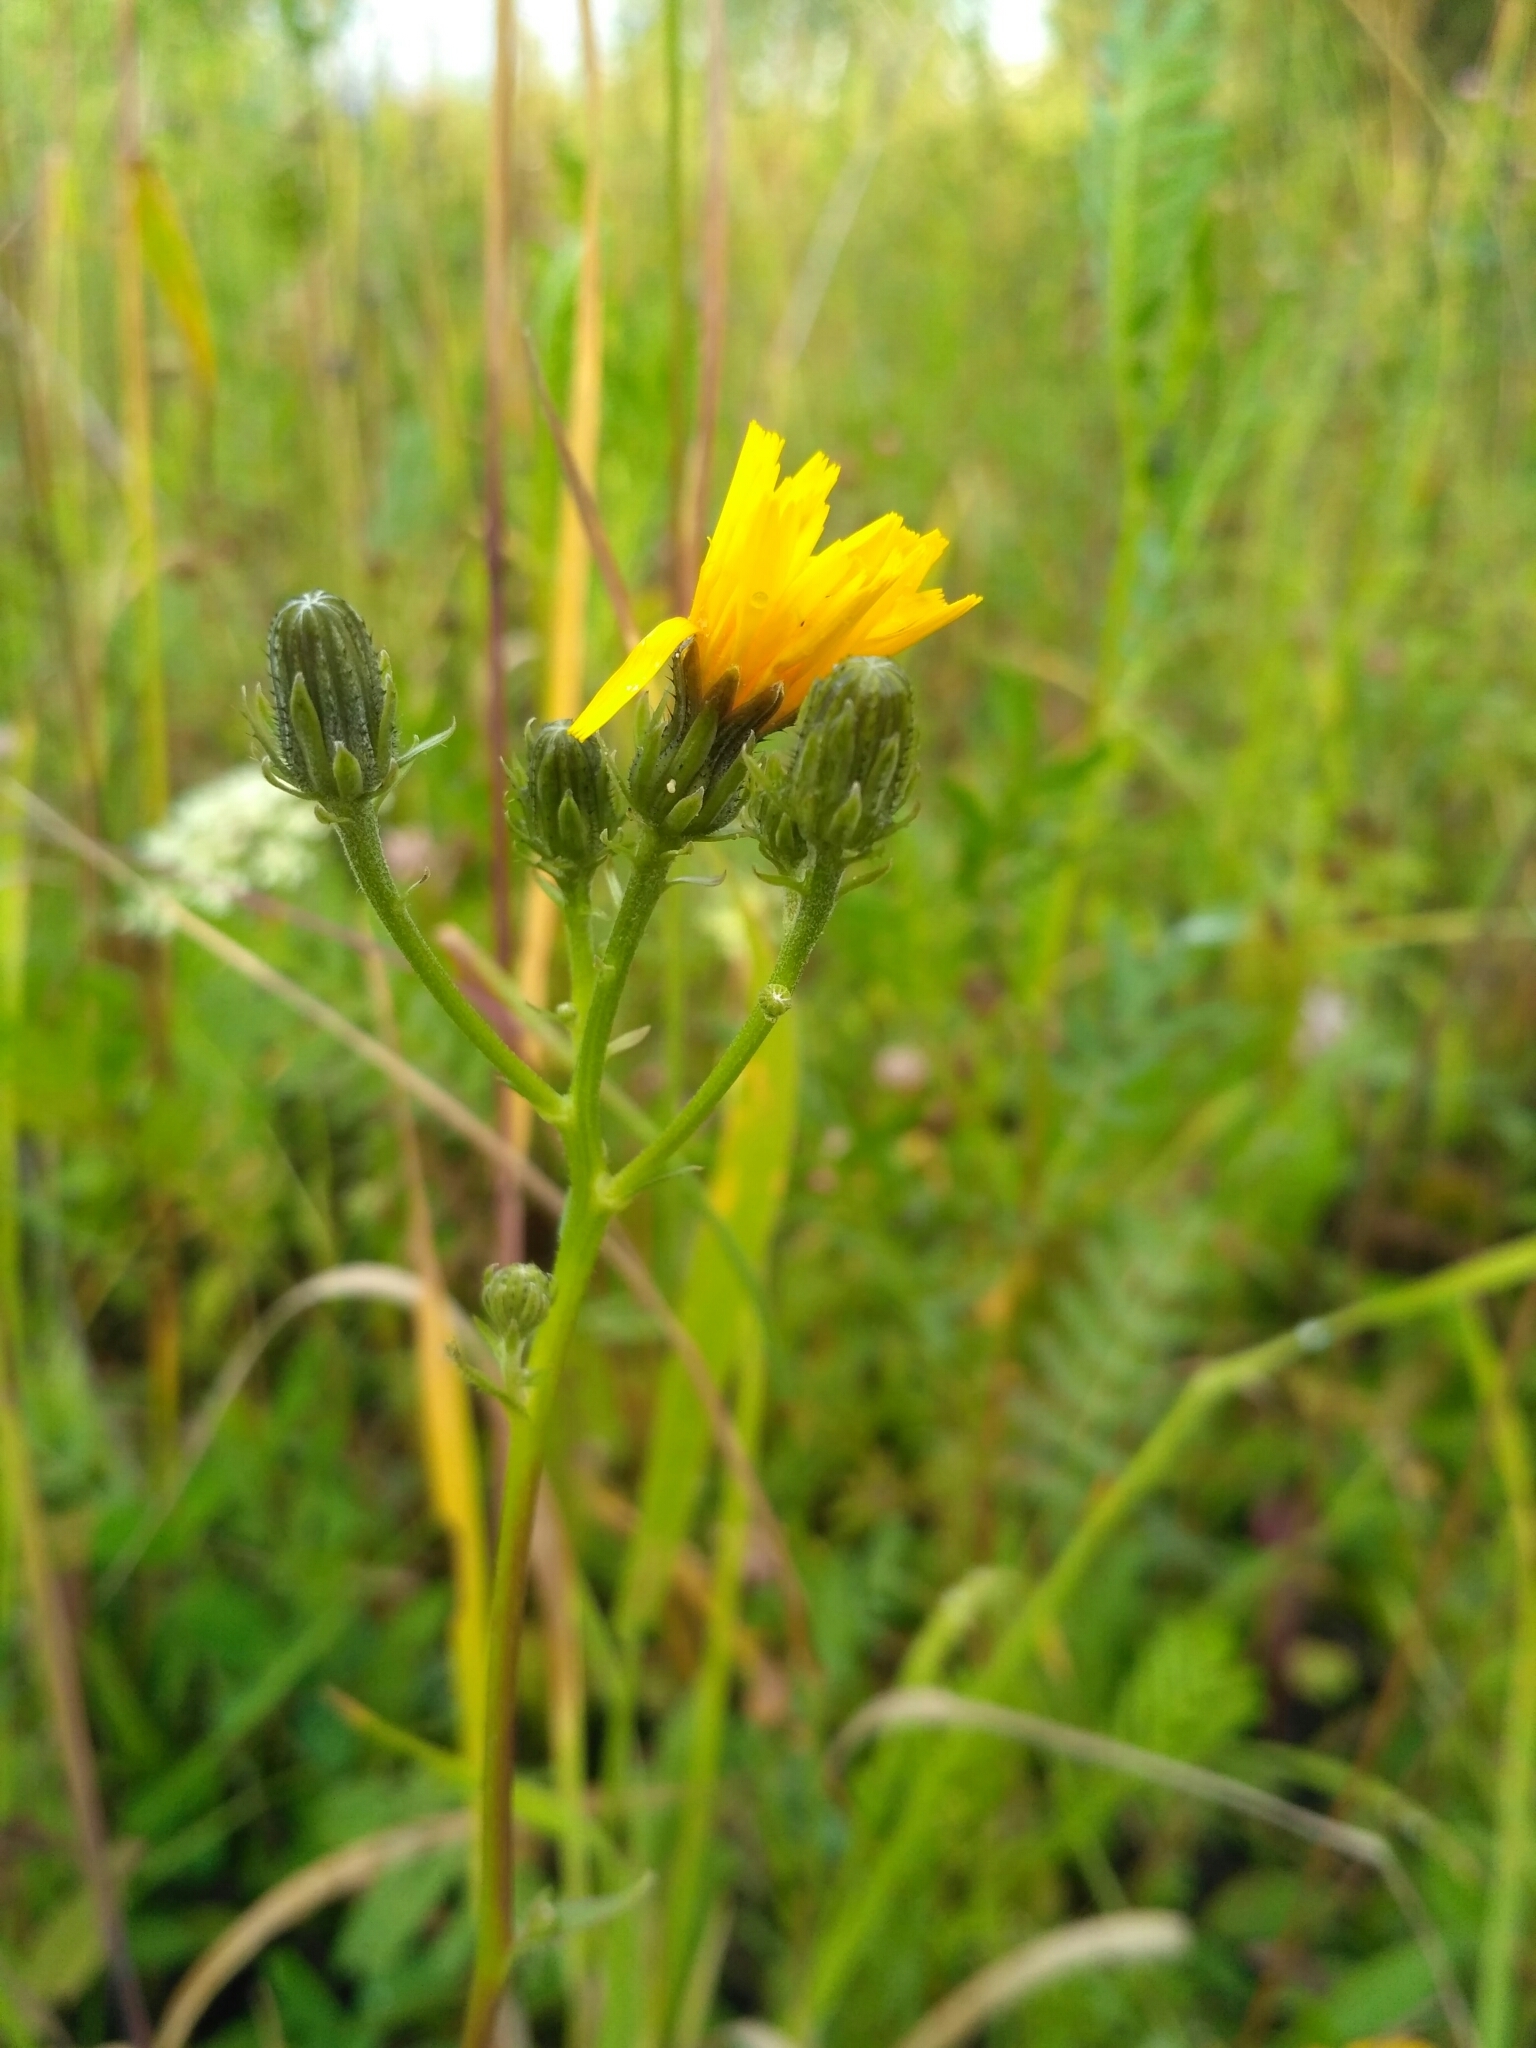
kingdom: Plantae
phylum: Tracheophyta
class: Magnoliopsida
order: Asterales
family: Asteraceae
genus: Picris
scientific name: Picris hieracioides
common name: Hawkweed oxtongue
